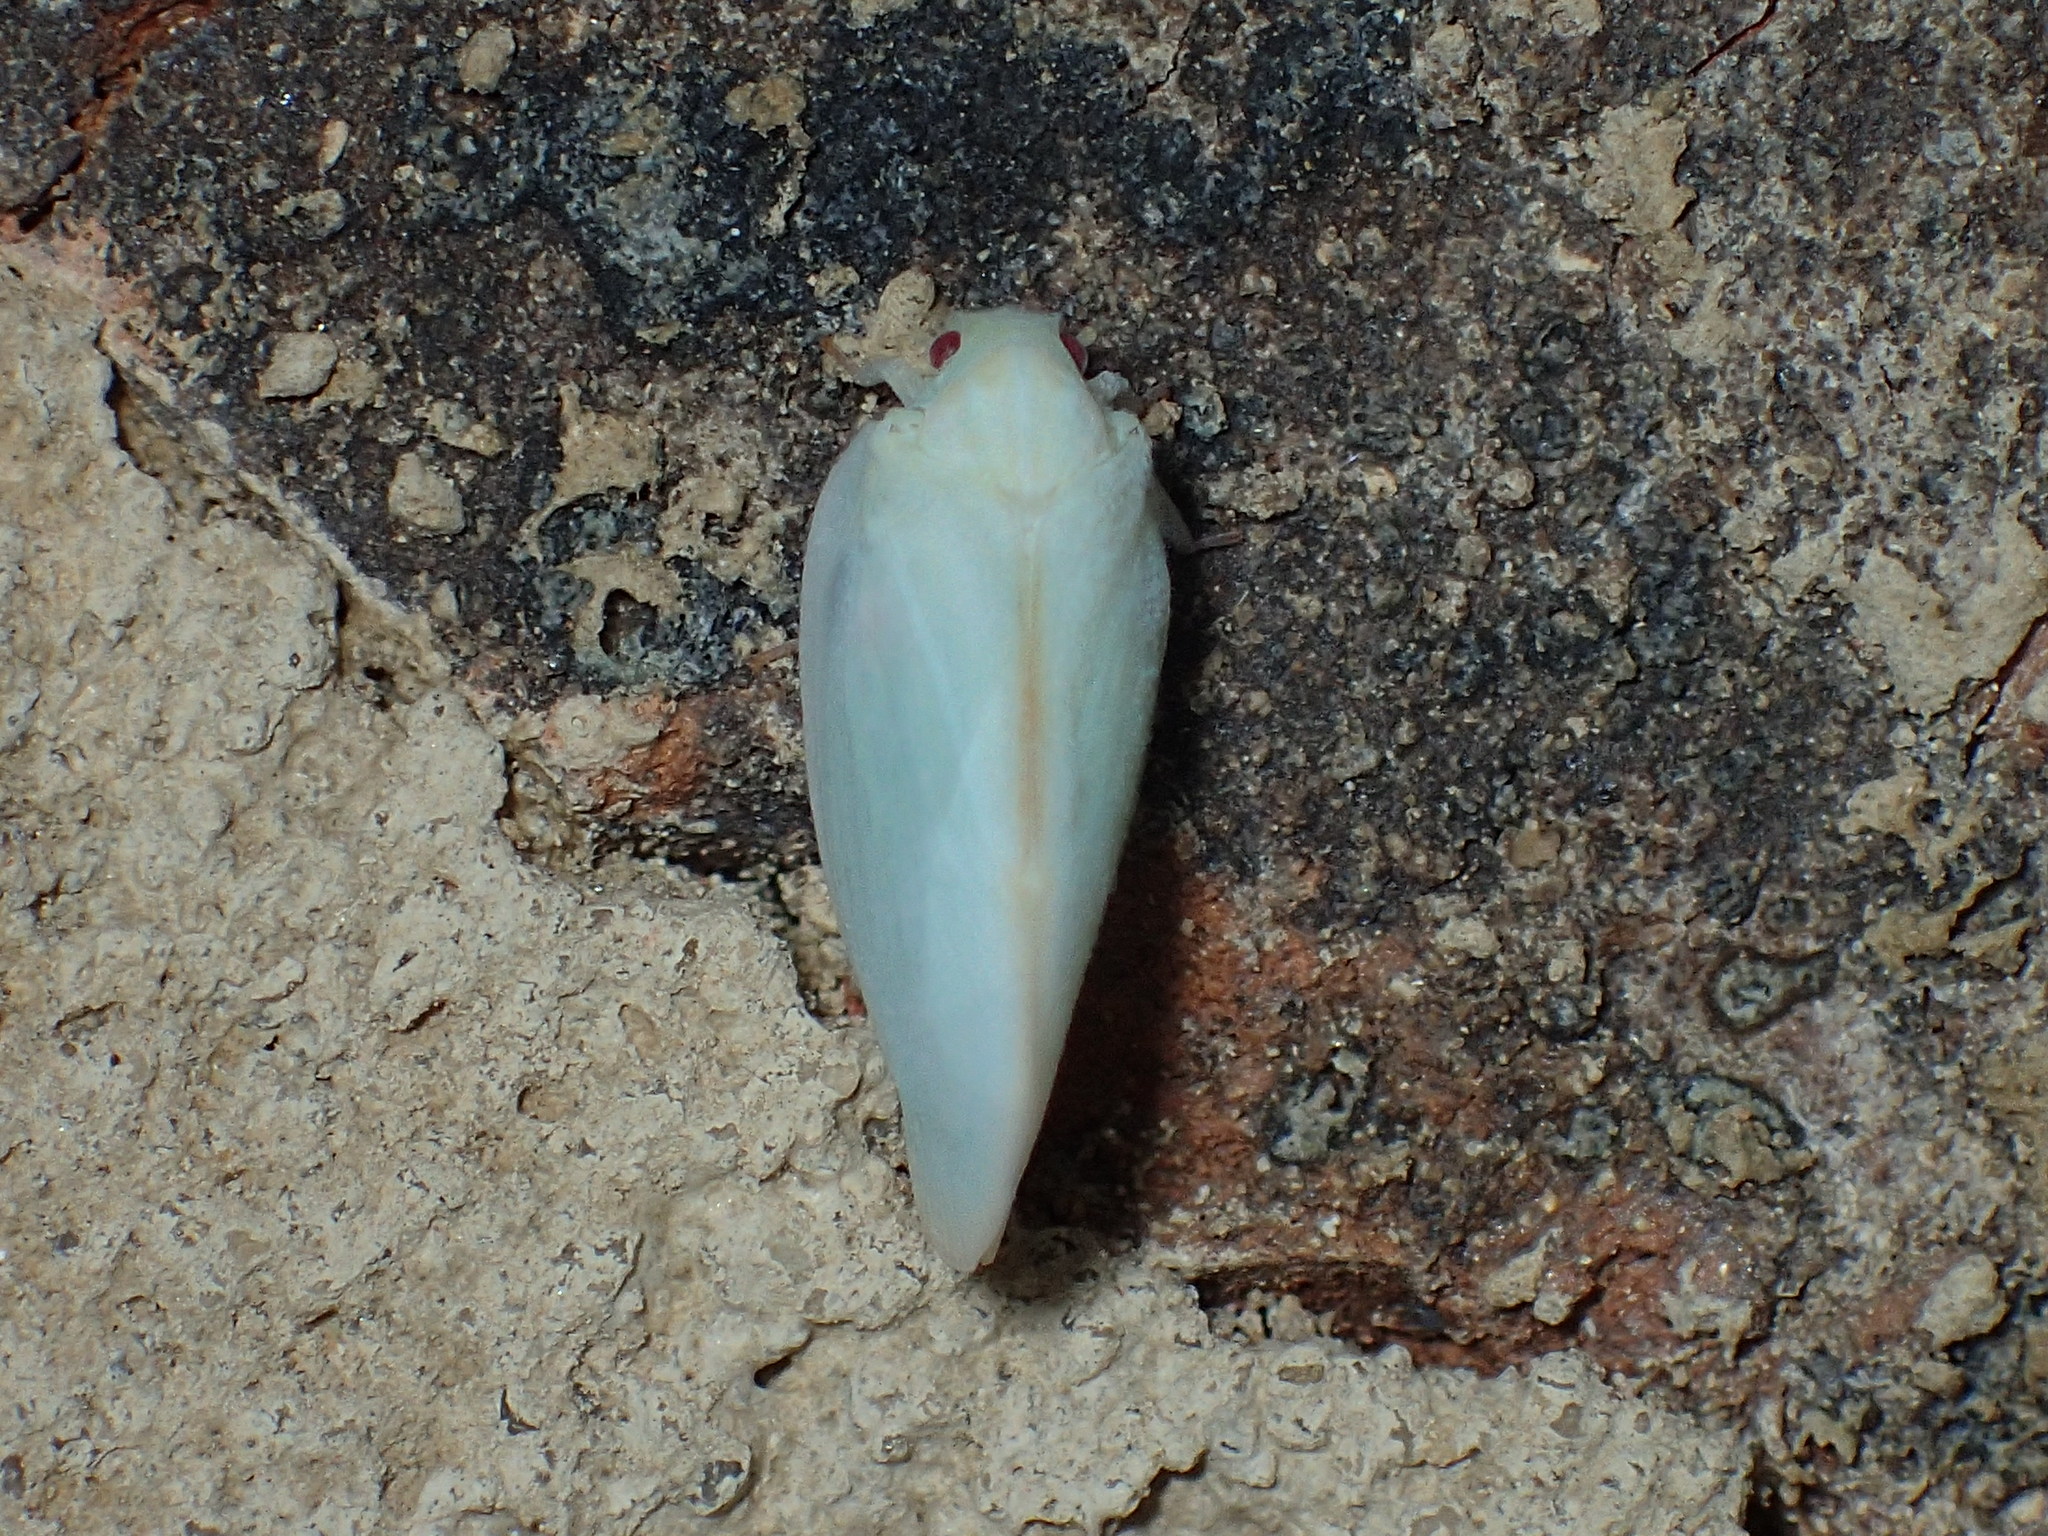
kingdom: Animalia
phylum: Arthropoda
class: Insecta
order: Hemiptera
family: Flatidae
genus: Ormenoides
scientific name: Ormenoides venusta
